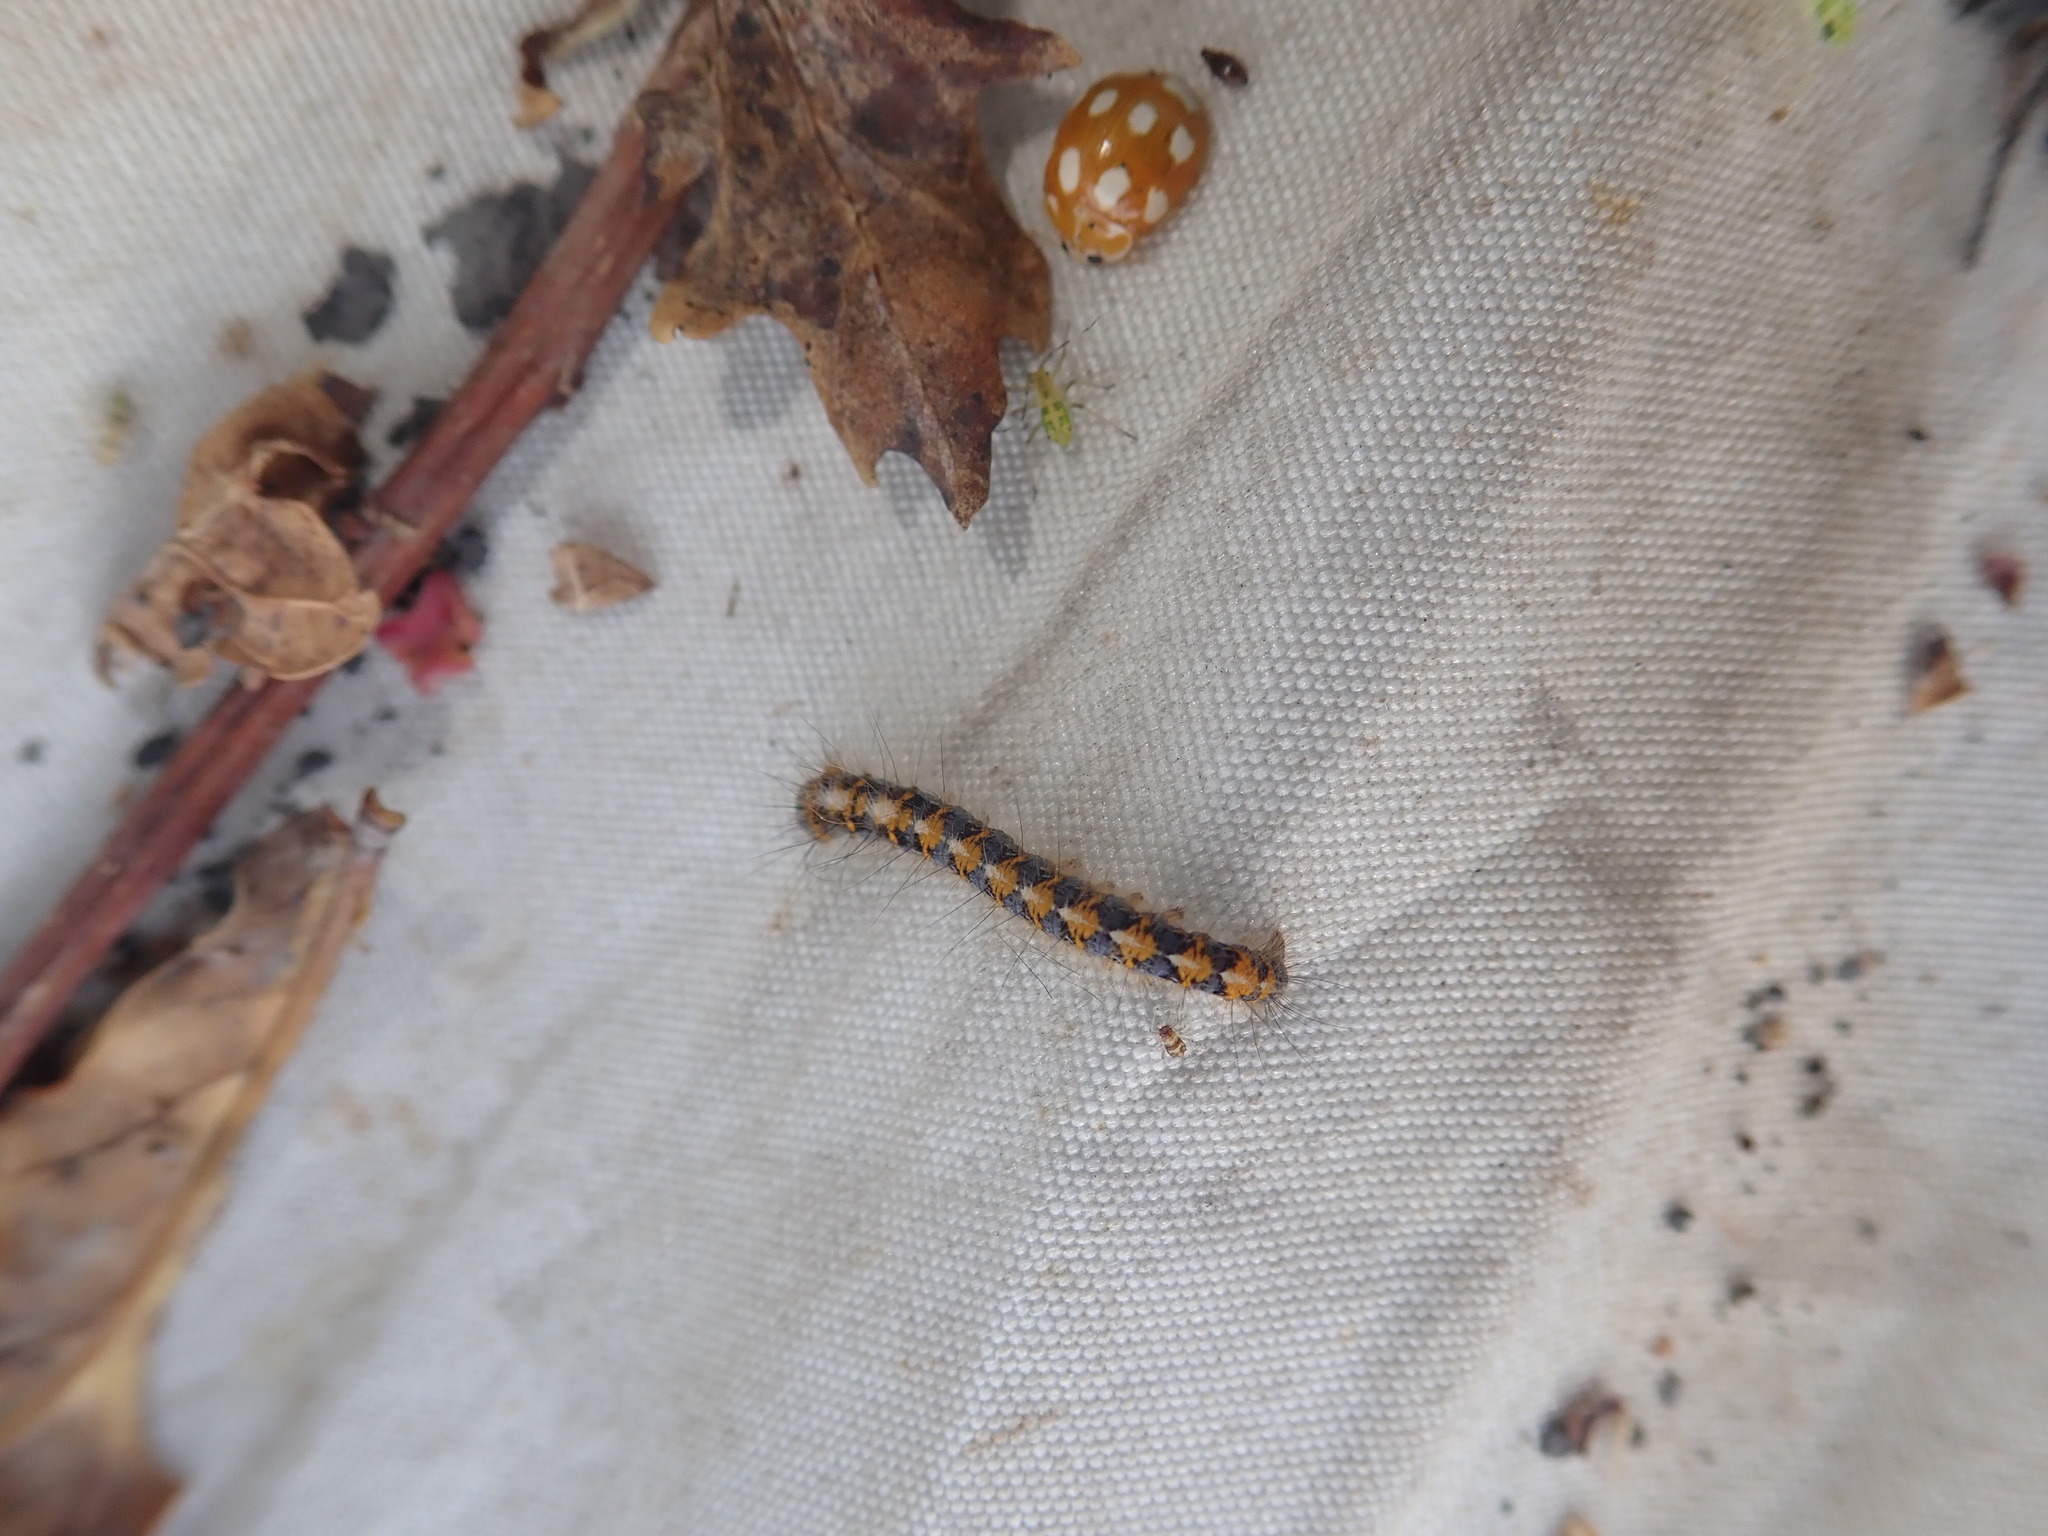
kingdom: Animalia
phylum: Arthropoda
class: Insecta
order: Lepidoptera
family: Lasiocampidae
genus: Lasiocampa
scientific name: Lasiocampa quercus
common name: Oak eggar
